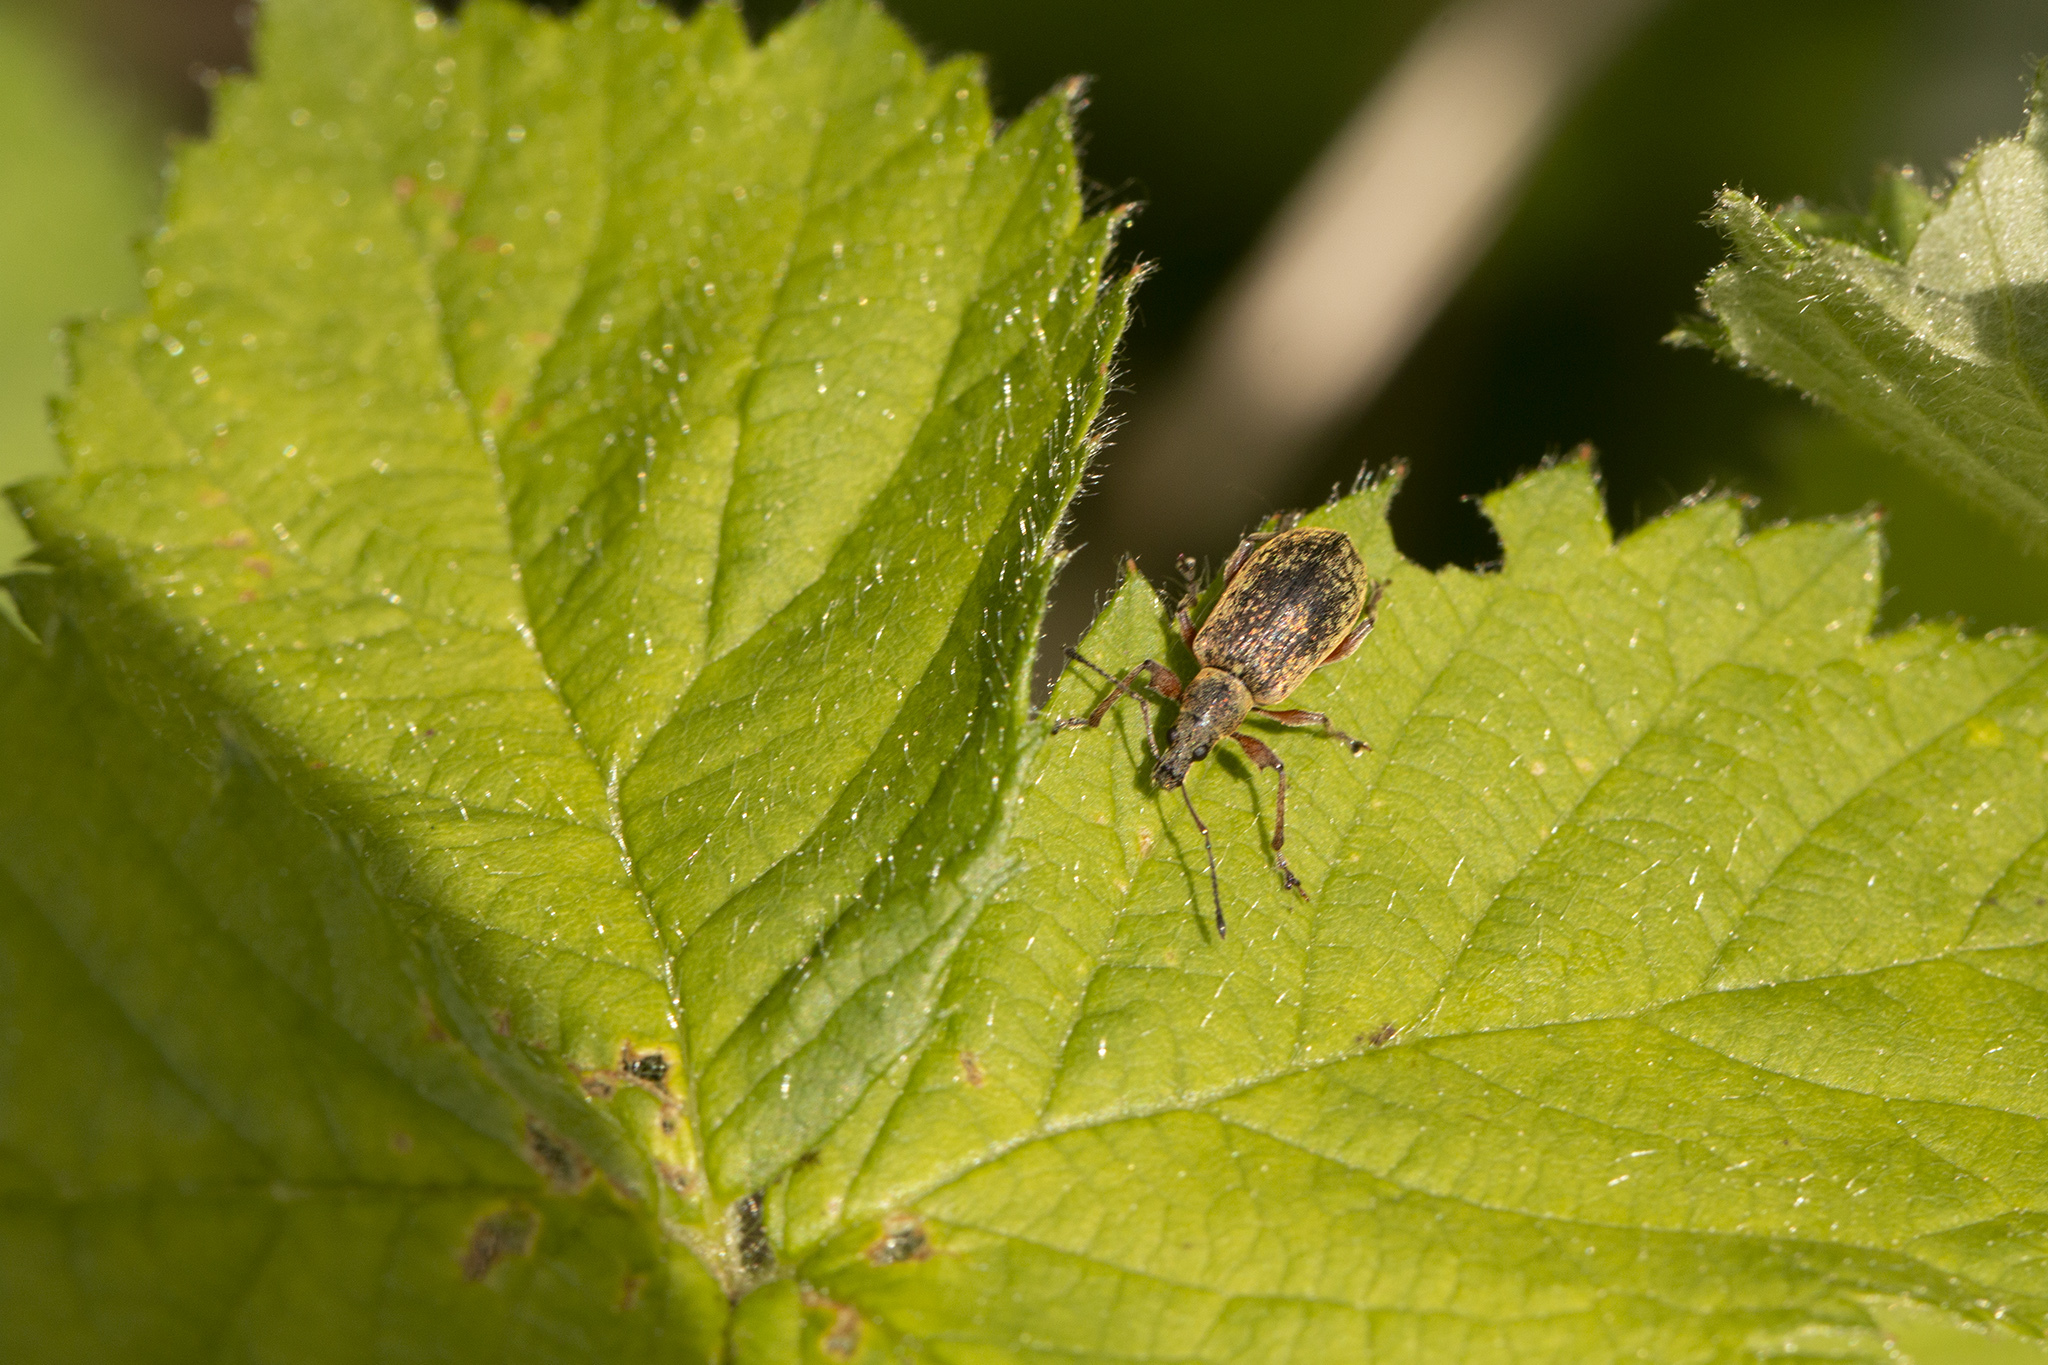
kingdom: Animalia
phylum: Arthropoda
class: Insecta
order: Coleoptera
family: Curculionidae
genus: Phyllobius
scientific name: Phyllobius glaucus
